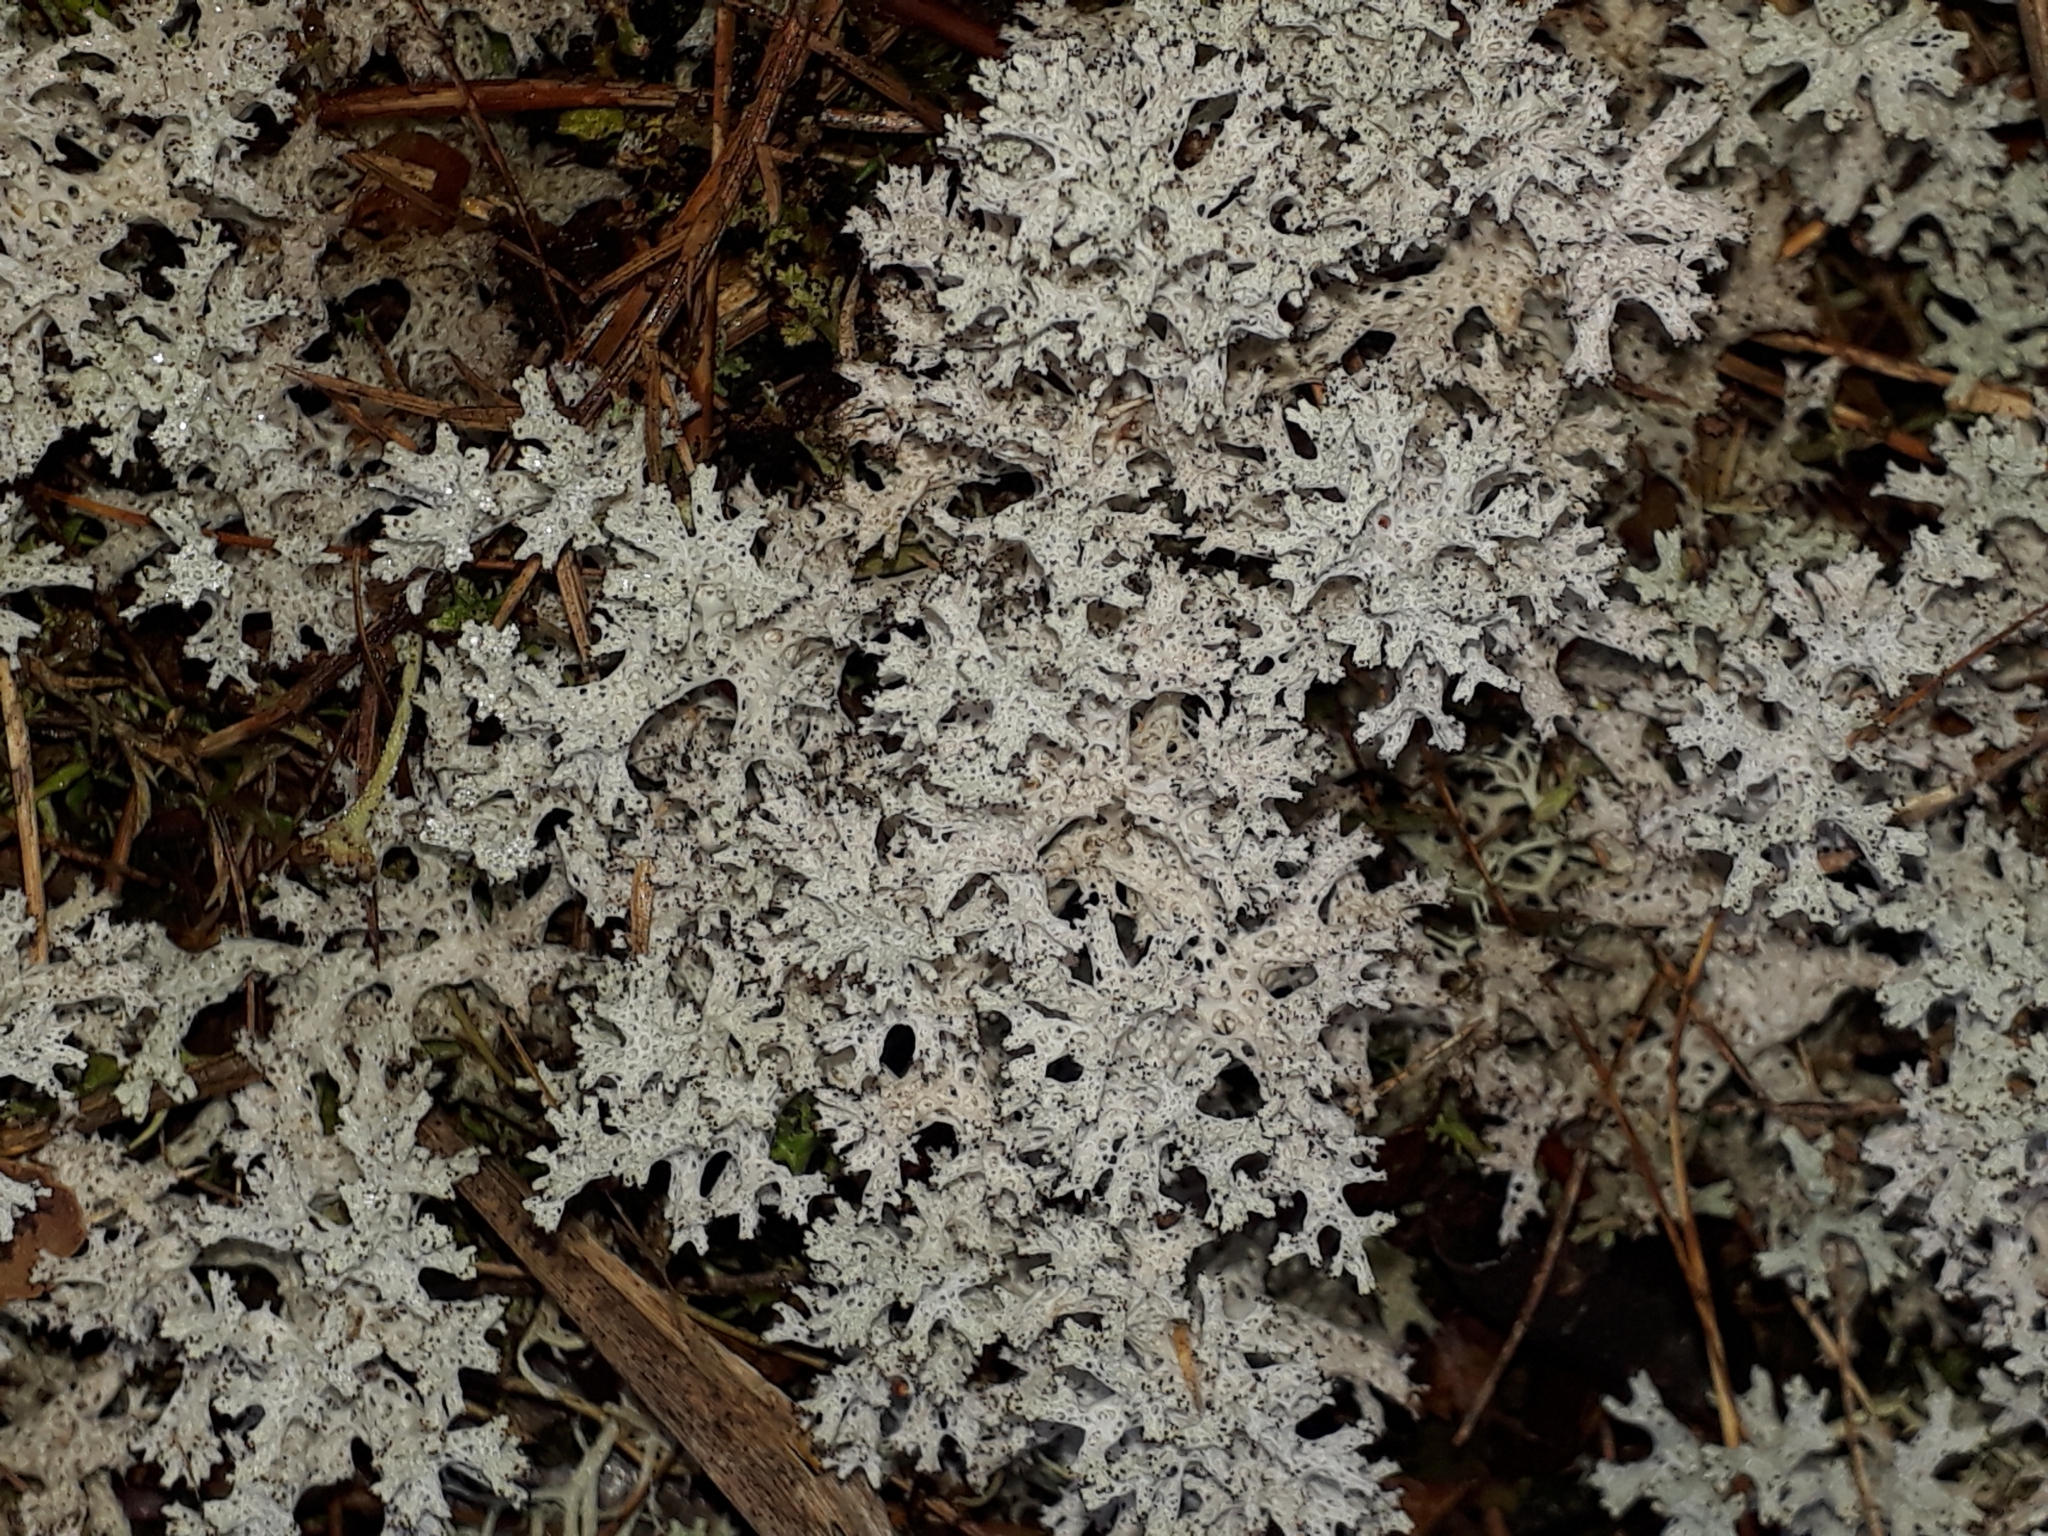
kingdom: Fungi
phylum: Ascomycota
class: Lecanoromycetes
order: Lecanorales
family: Cladoniaceae
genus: Pulchrocladia
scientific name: Pulchrocladia retipora
